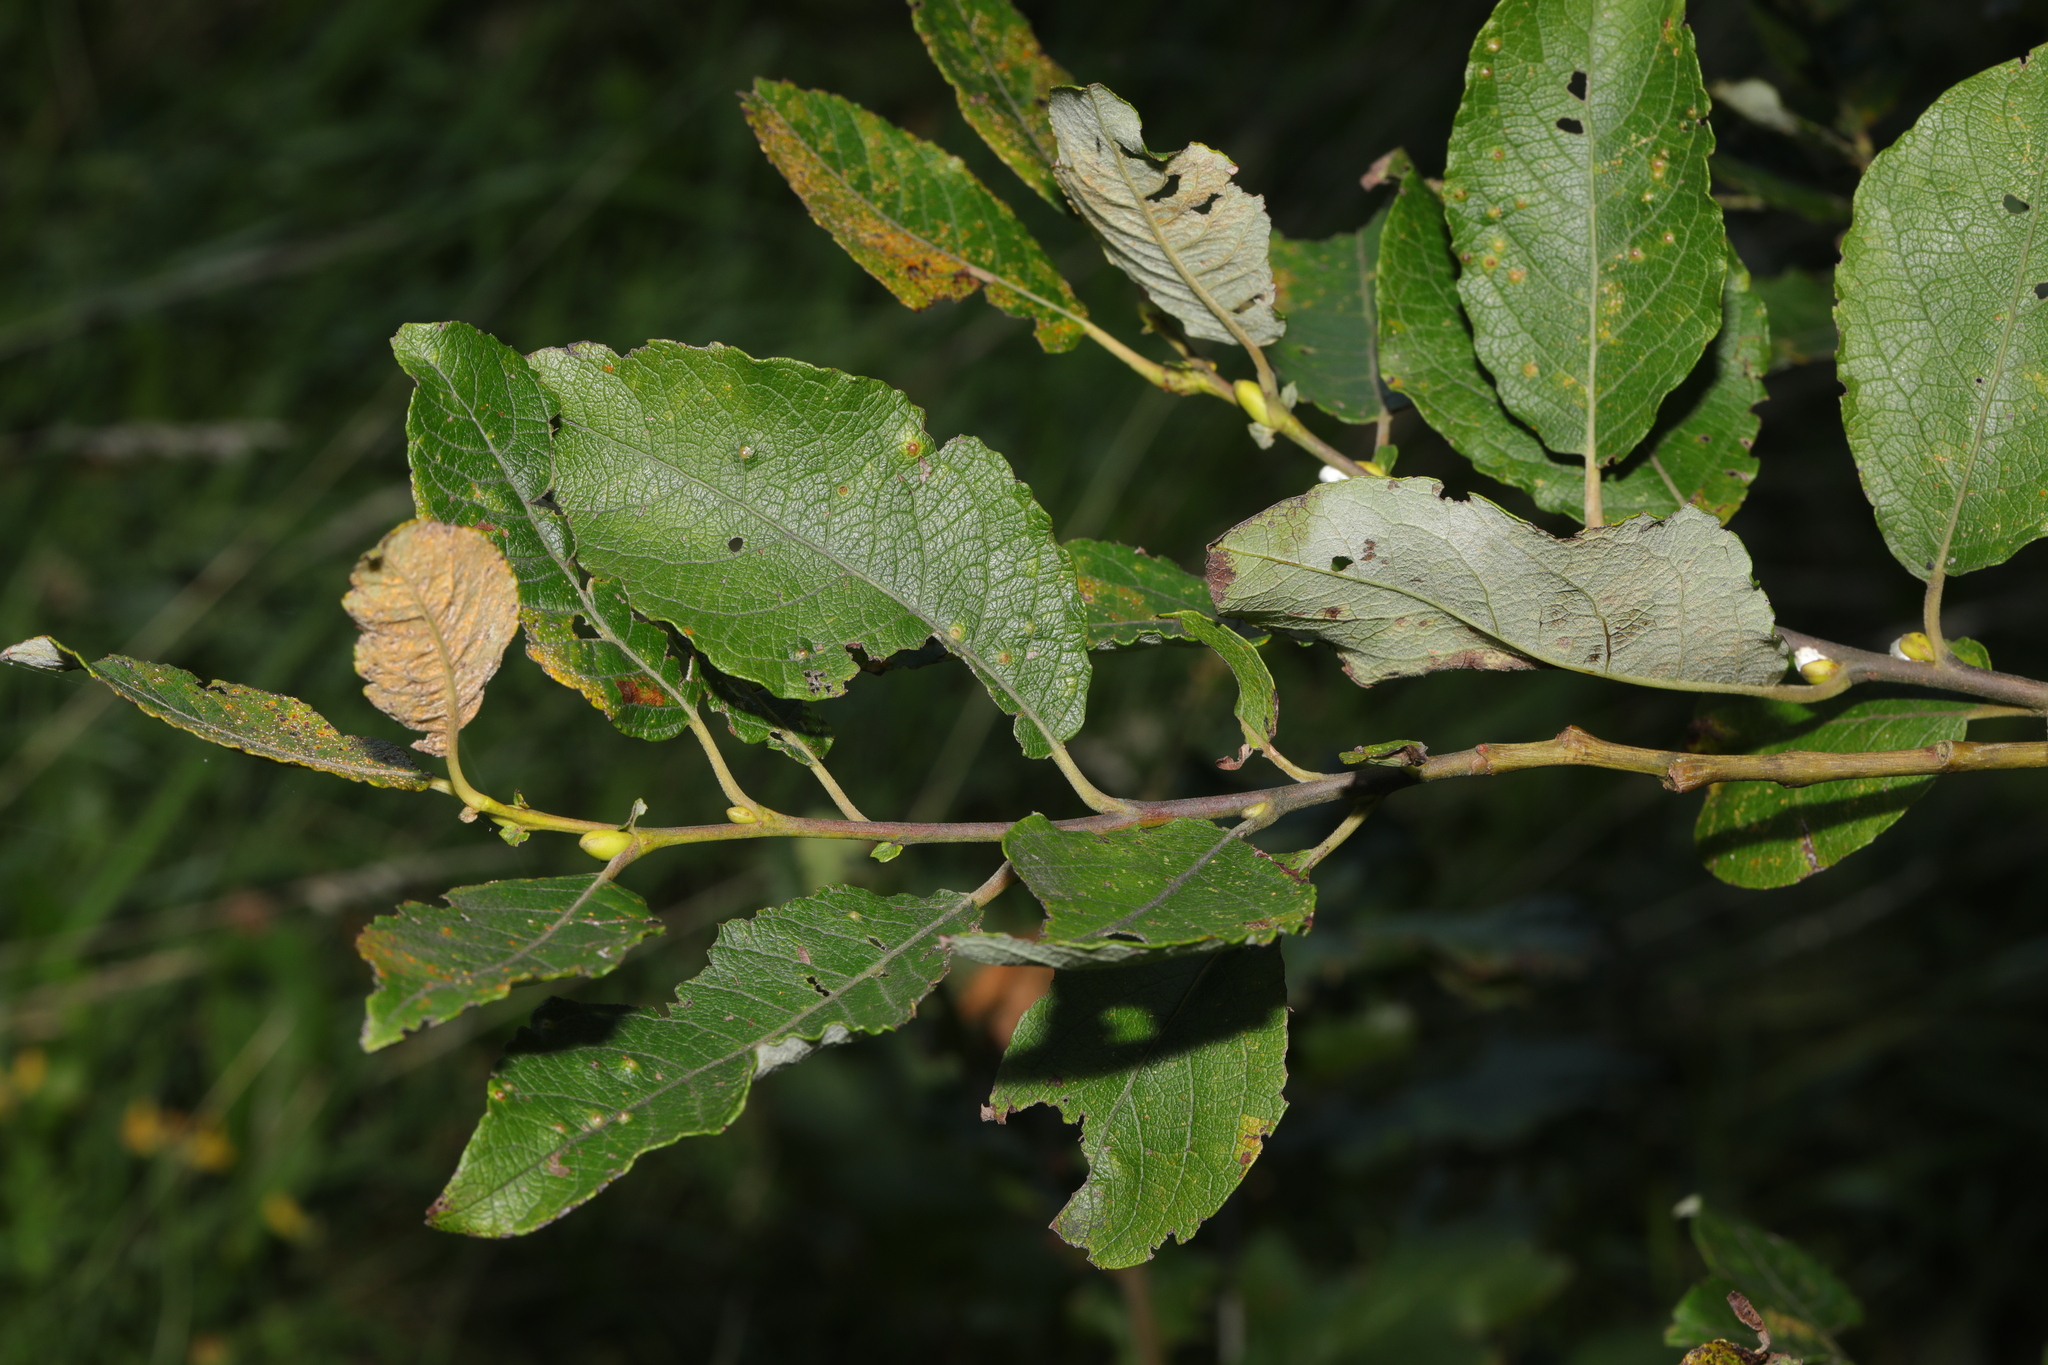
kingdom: Plantae
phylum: Tracheophyta
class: Magnoliopsida
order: Malpighiales
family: Salicaceae
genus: Salix
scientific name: Salix caprea
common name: Goat willow
